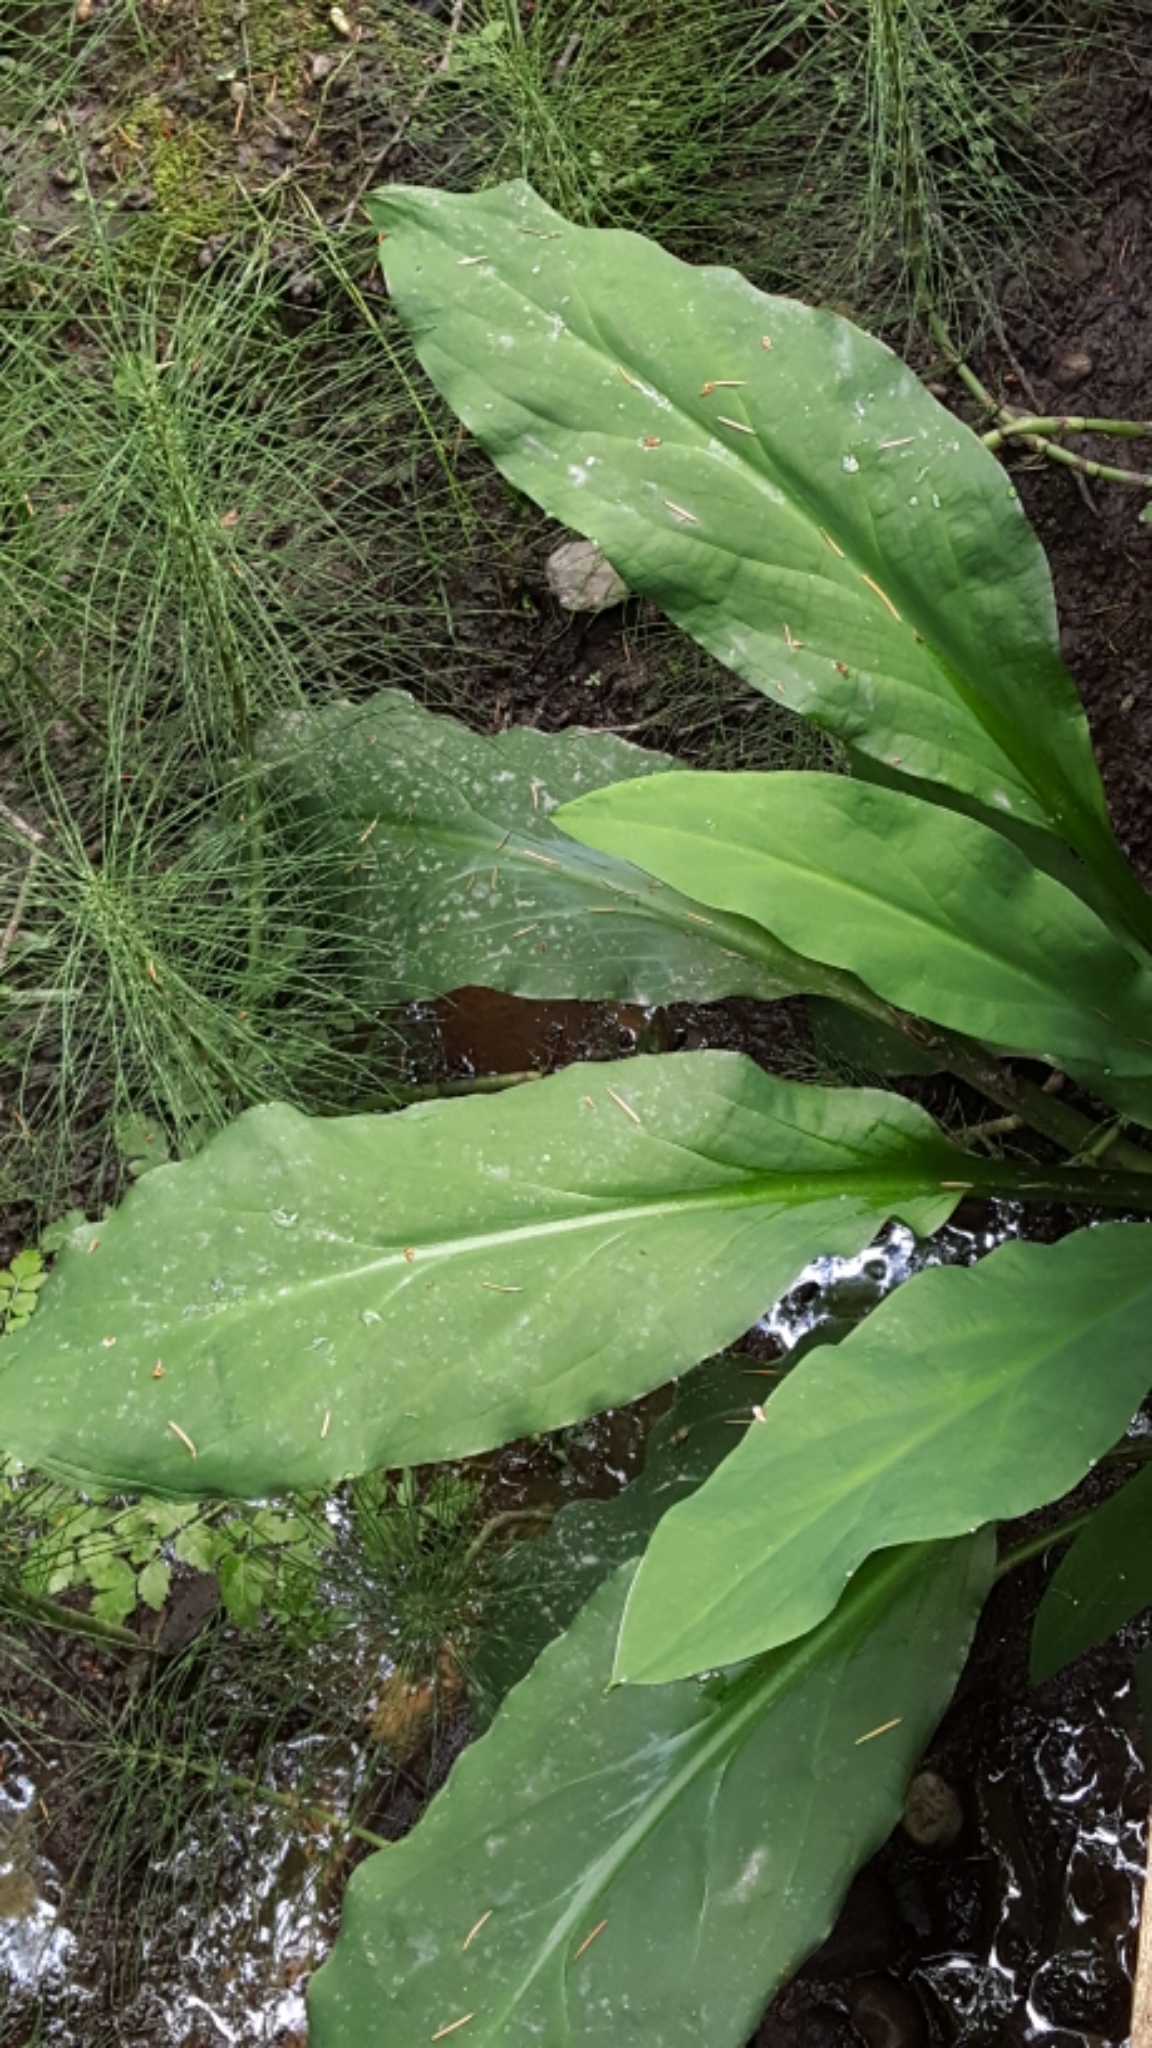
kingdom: Plantae
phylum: Tracheophyta
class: Liliopsida
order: Alismatales
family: Araceae
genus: Lysichiton
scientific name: Lysichiton americanus
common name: American skunk cabbage
